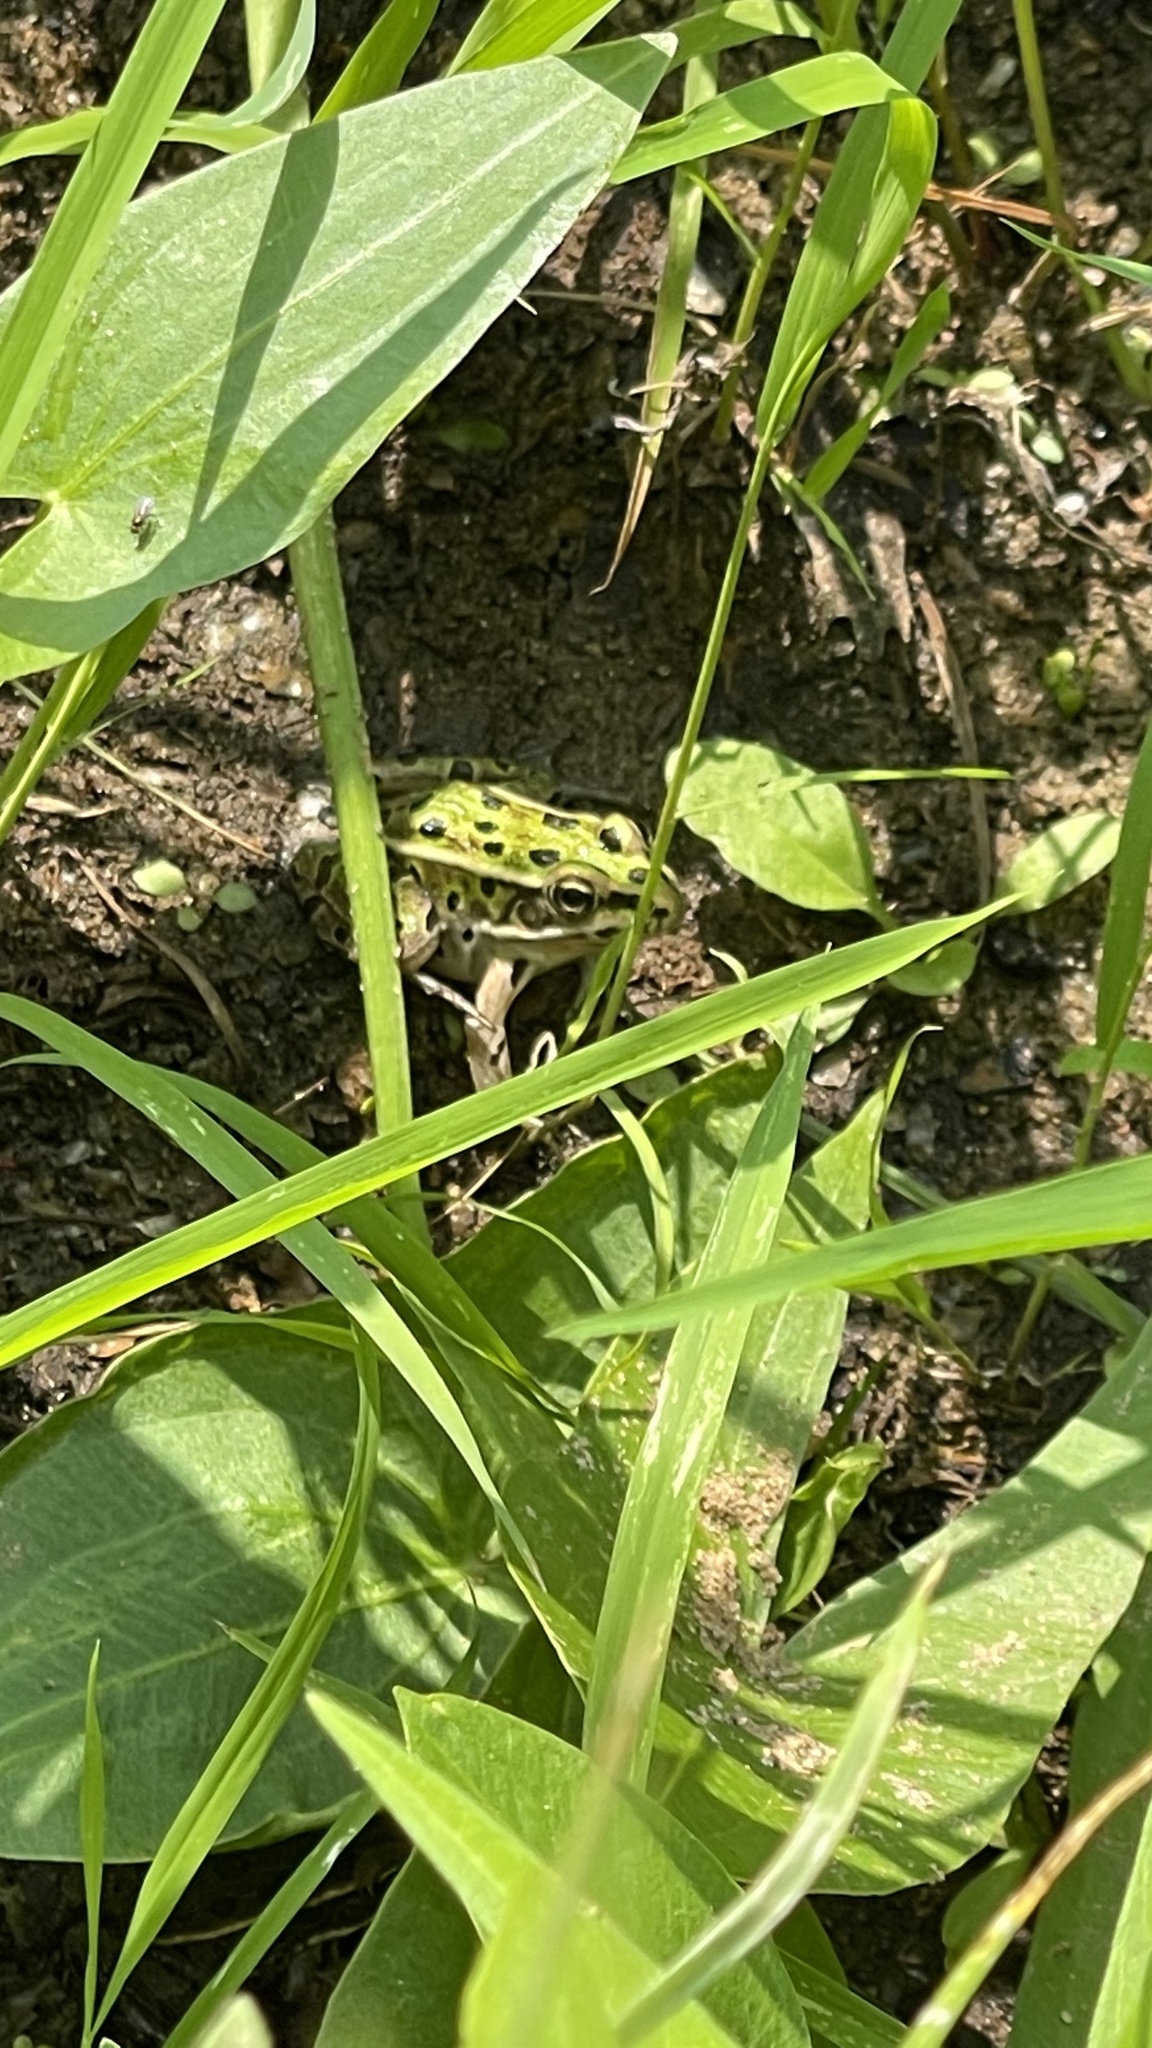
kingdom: Animalia
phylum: Chordata
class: Amphibia
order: Anura
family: Ranidae
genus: Lithobates
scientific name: Lithobates pipiens
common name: Northern leopard frog
